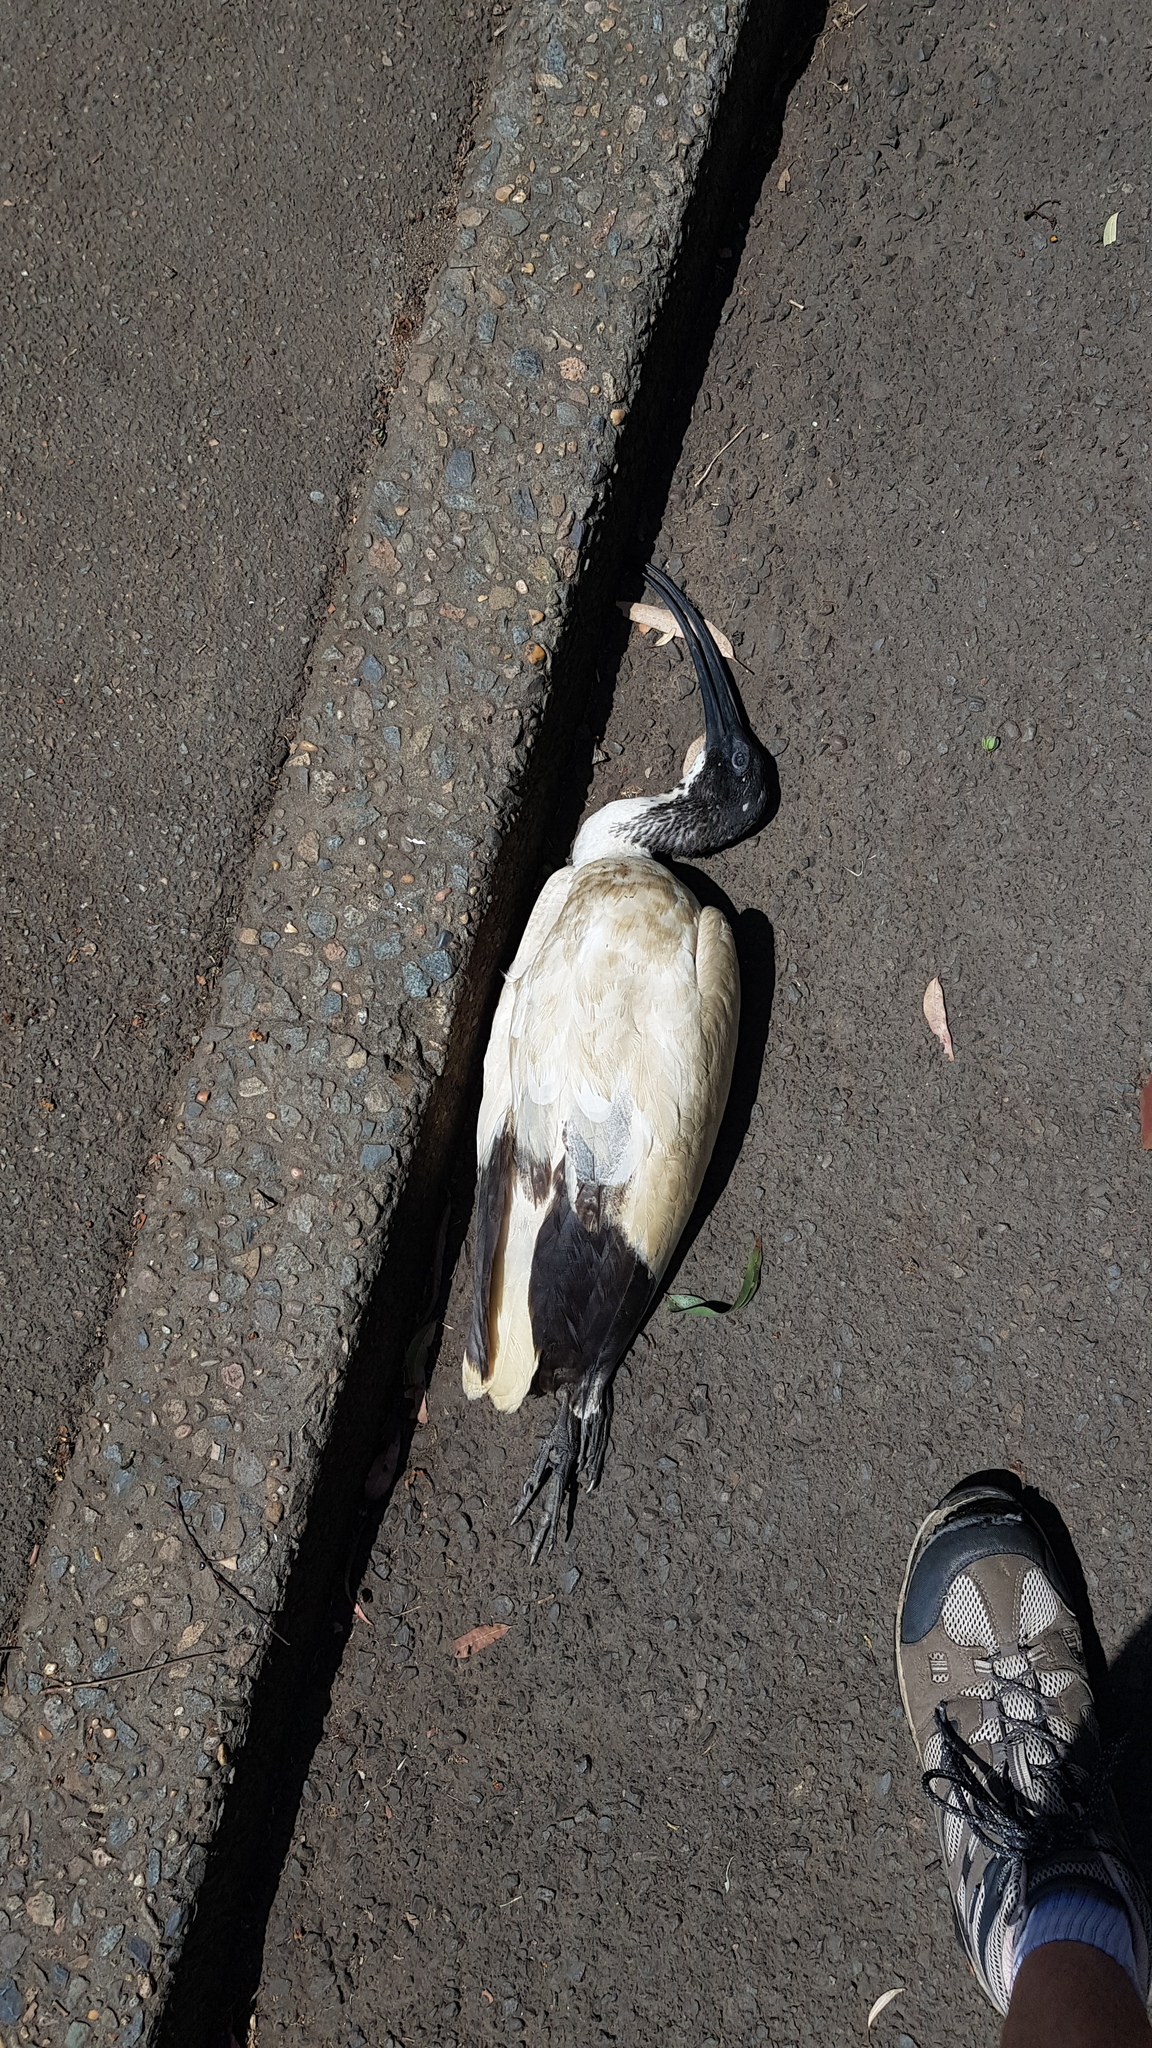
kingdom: Animalia
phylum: Chordata
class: Aves
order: Pelecaniformes
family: Threskiornithidae
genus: Threskiornis
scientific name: Threskiornis molucca
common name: Australian white ibis
